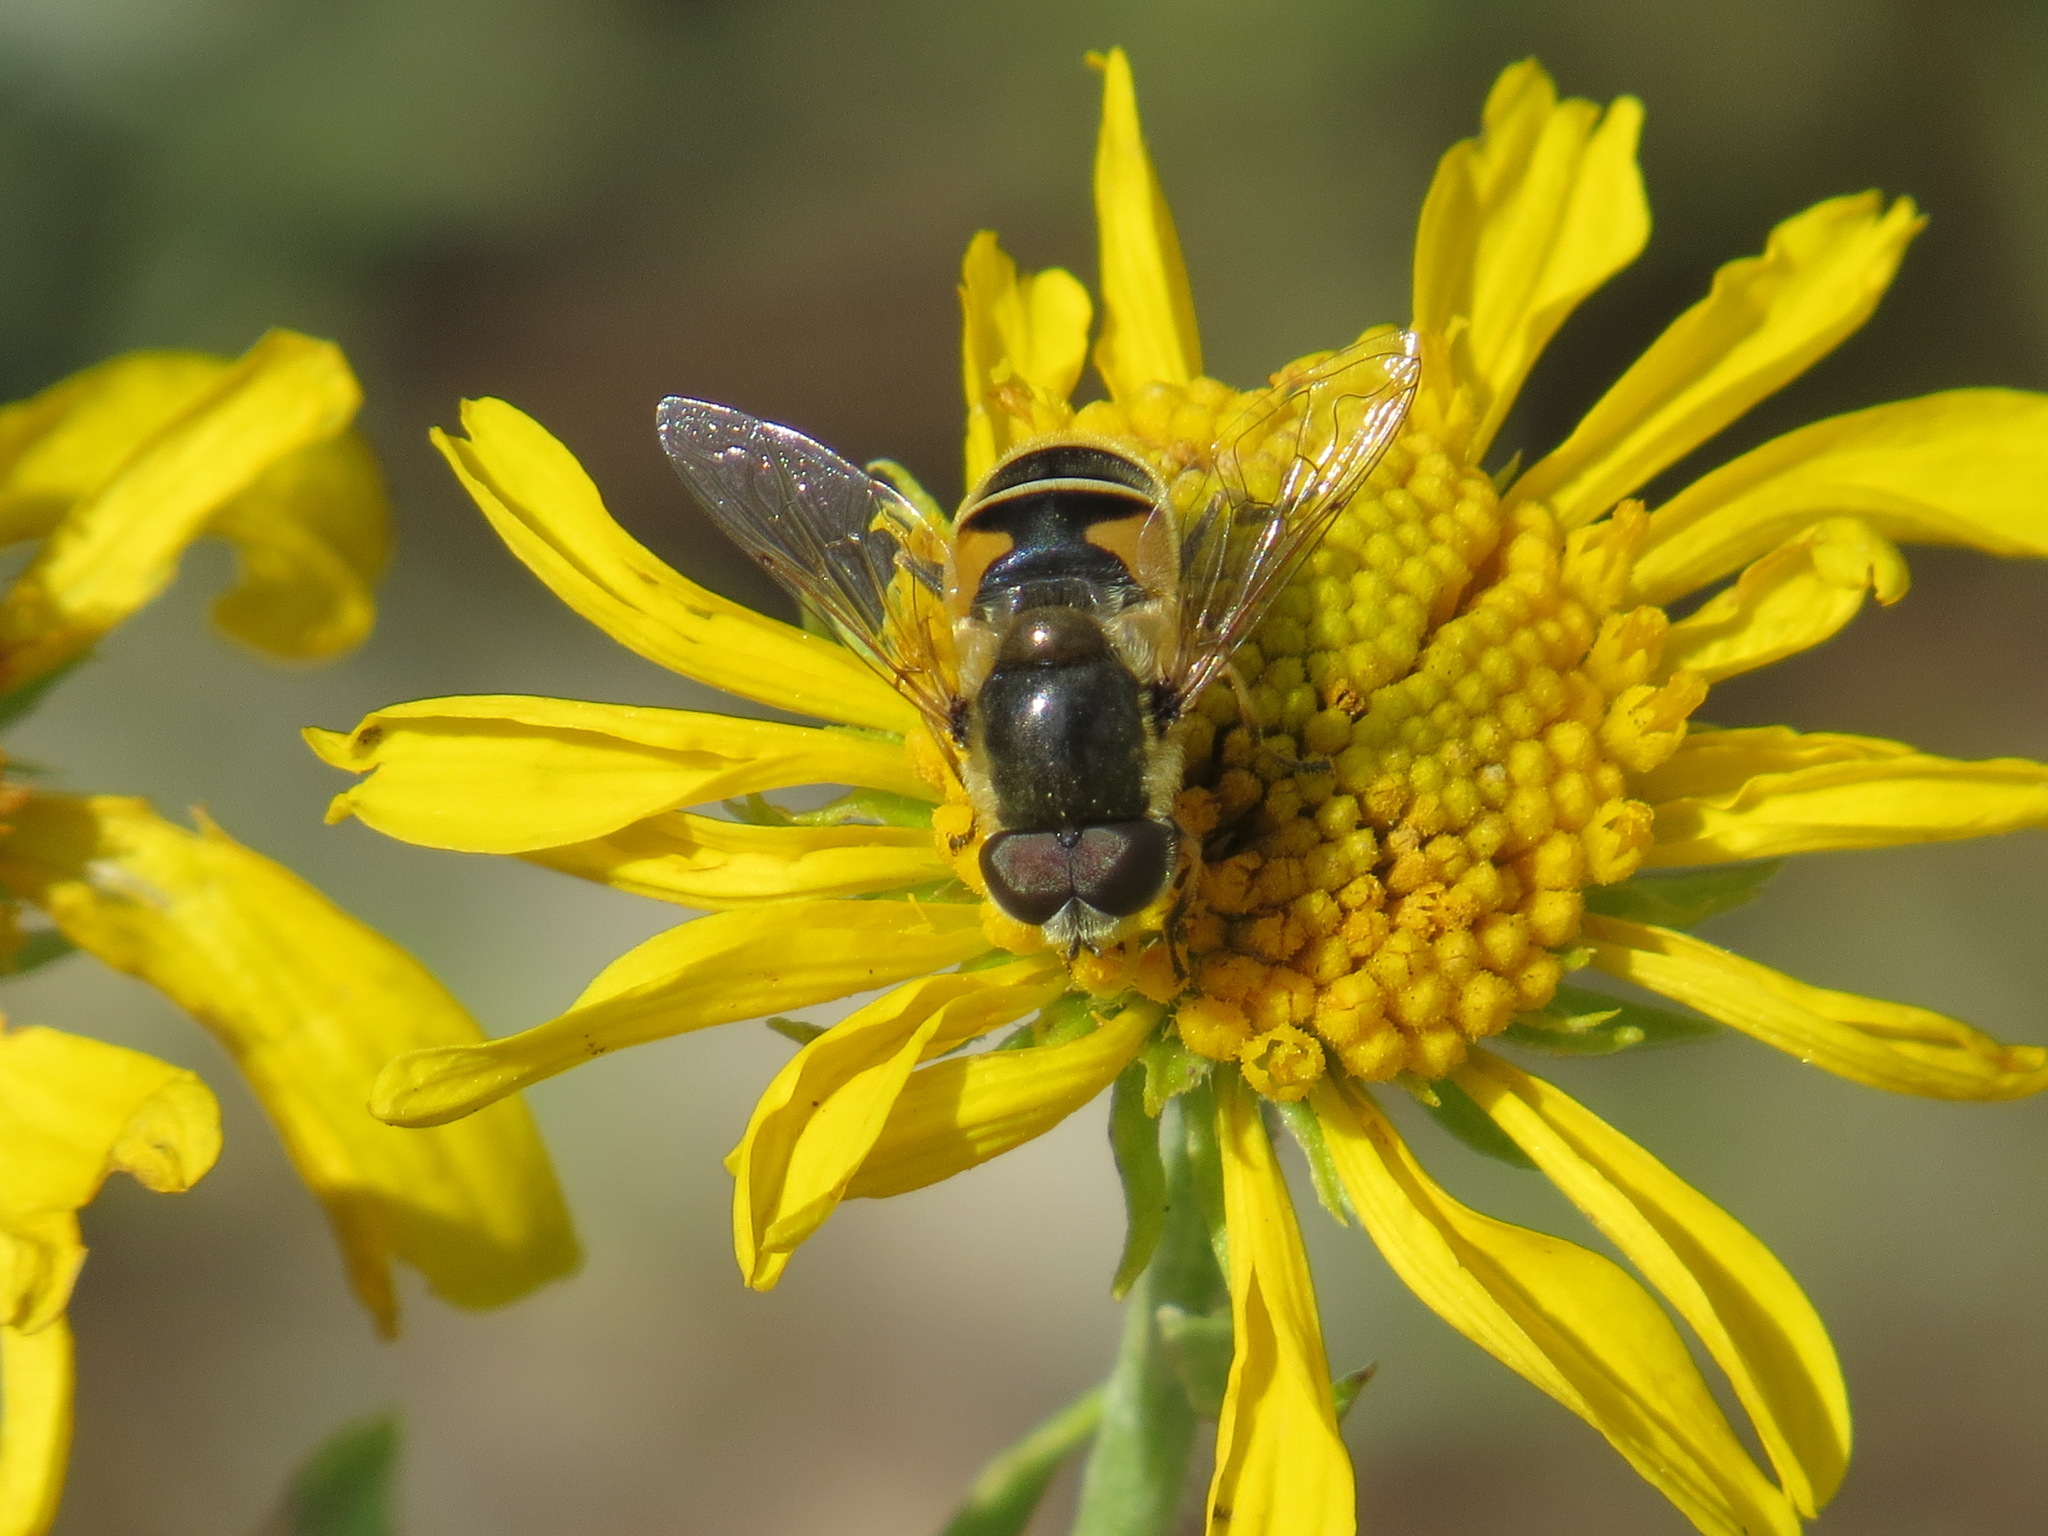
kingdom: Animalia
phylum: Arthropoda
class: Insecta
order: Diptera
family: Syrphidae
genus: Eristalis
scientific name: Eristalis hirta
